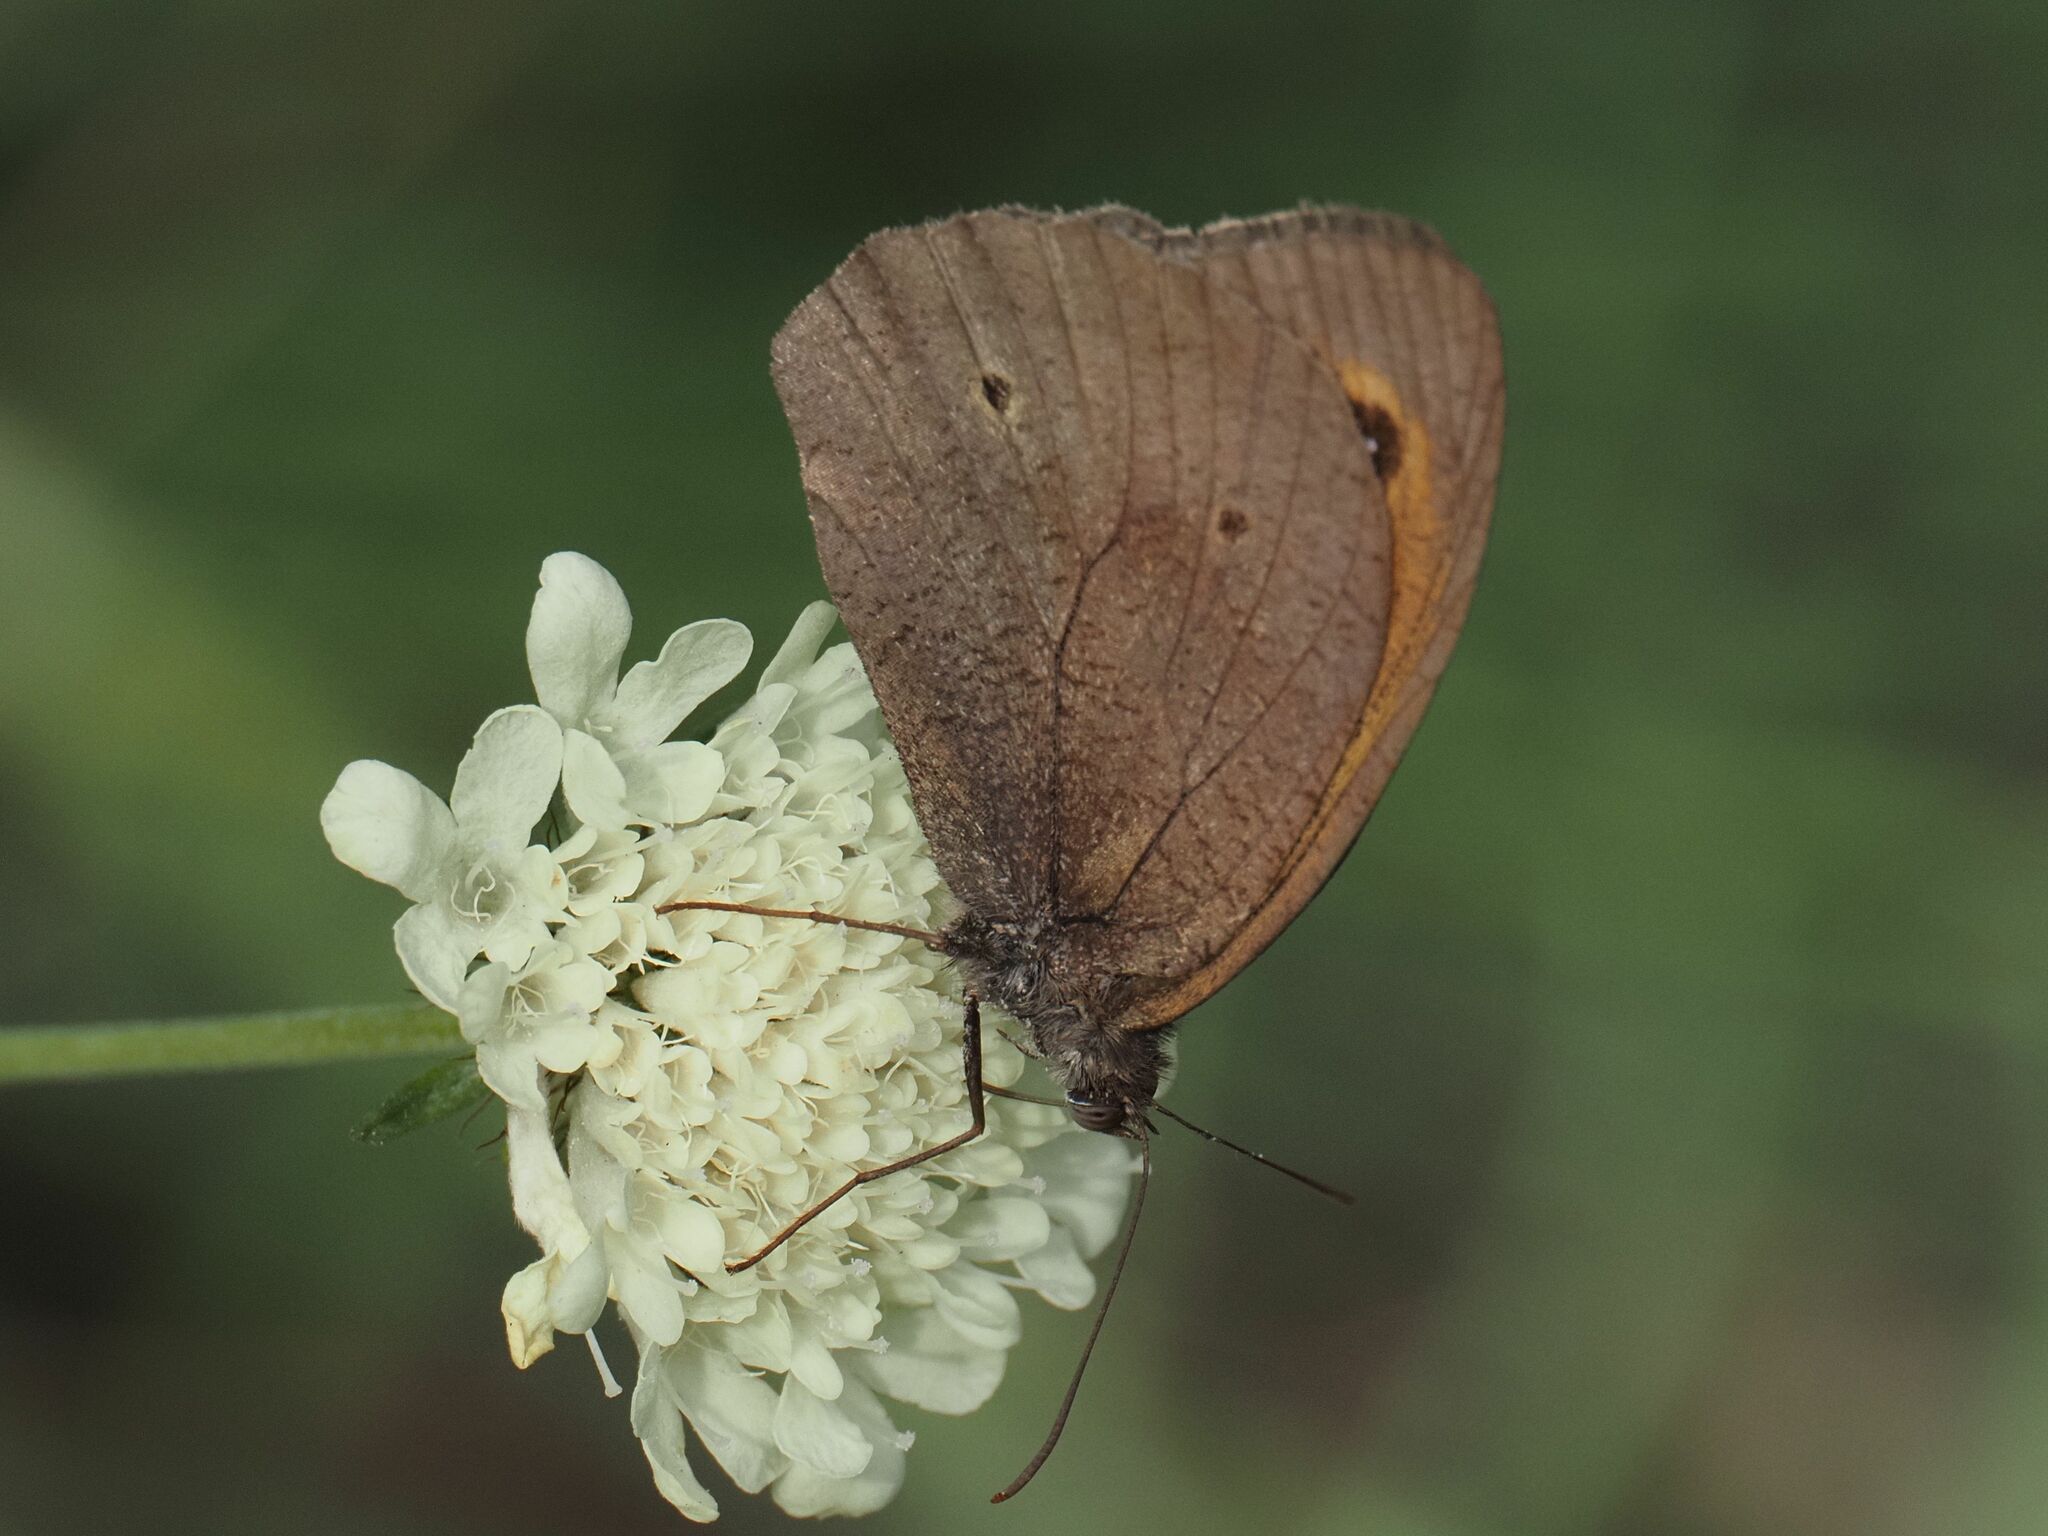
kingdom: Animalia
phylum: Arthropoda
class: Insecta
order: Lepidoptera
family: Nymphalidae
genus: Maniola
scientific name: Maniola jurtina
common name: Meadow brown
